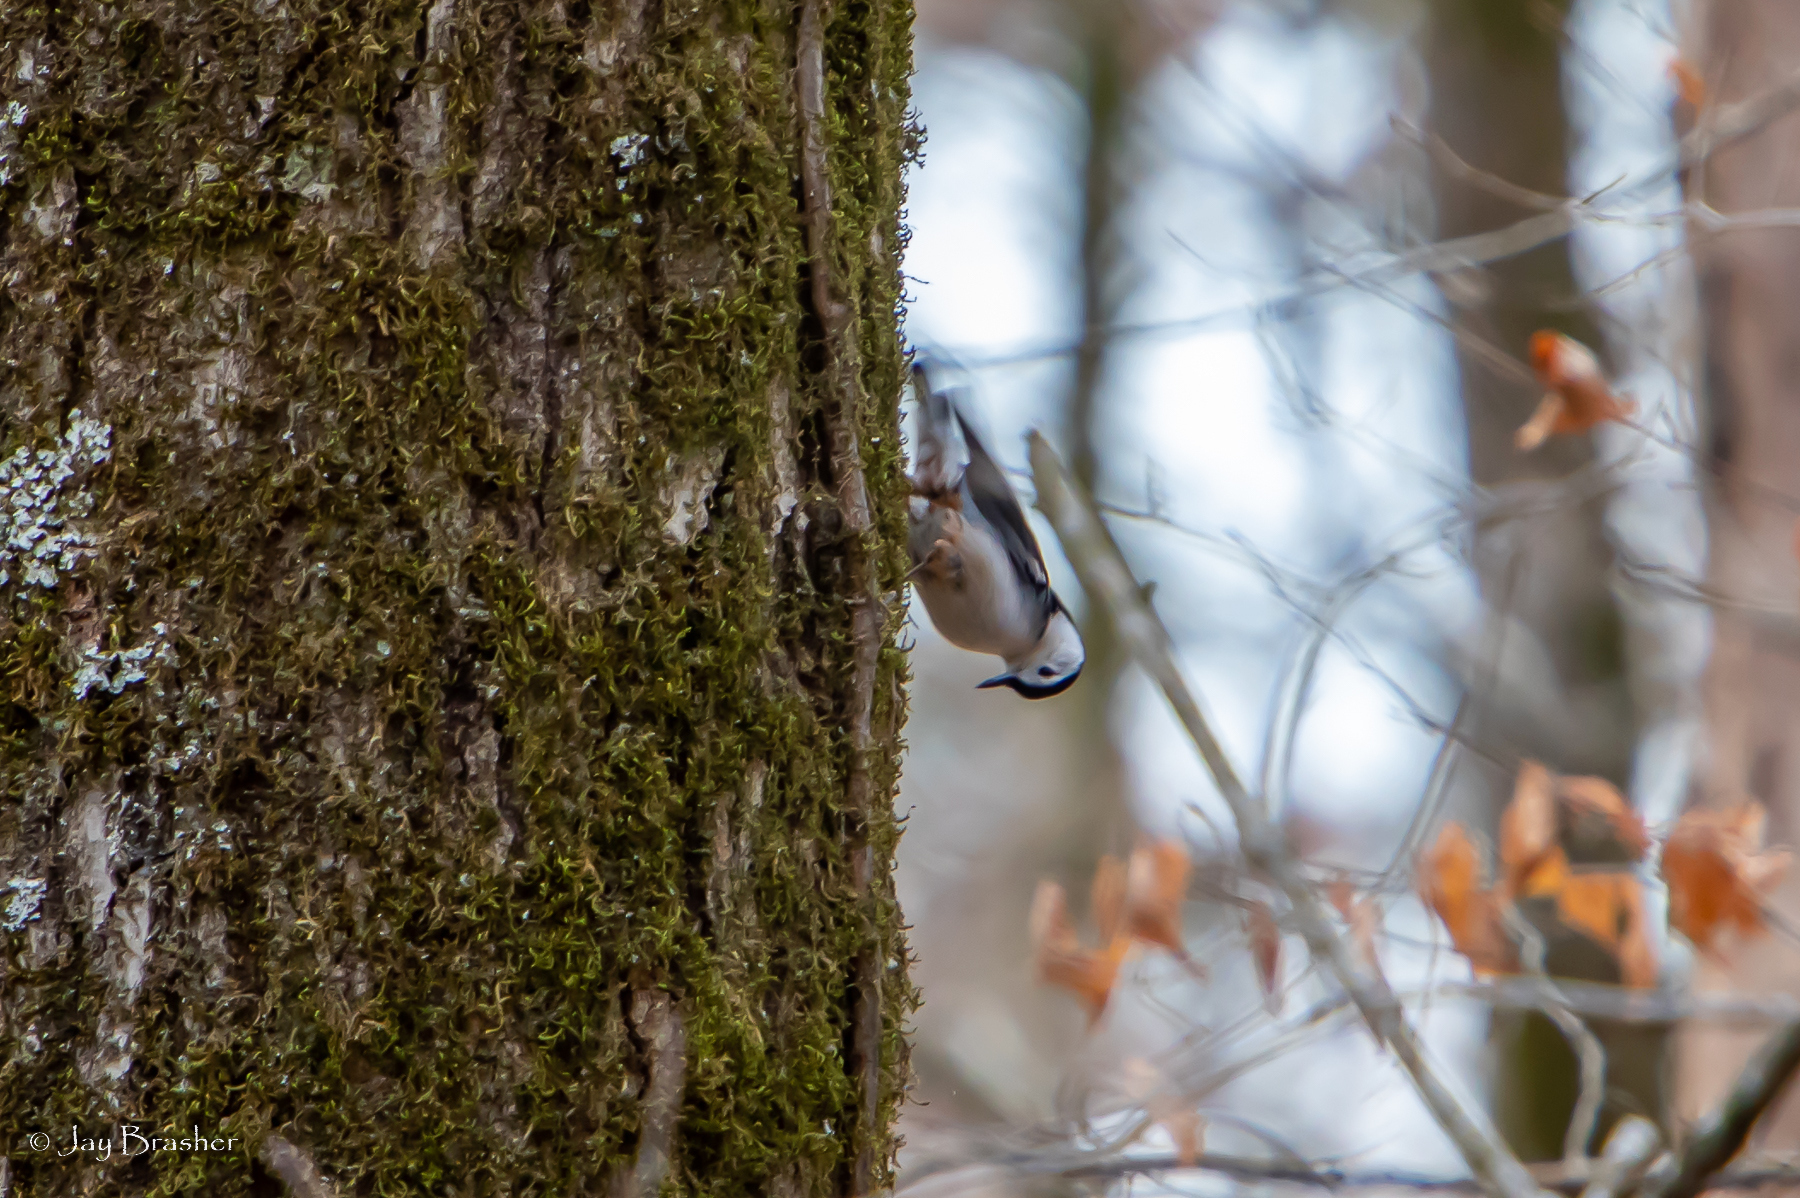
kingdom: Animalia
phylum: Chordata
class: Aves
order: Passeriformes
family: Sittidae
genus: Sitta
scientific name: Sitta carolinensis
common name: White-breasted nuthatch
